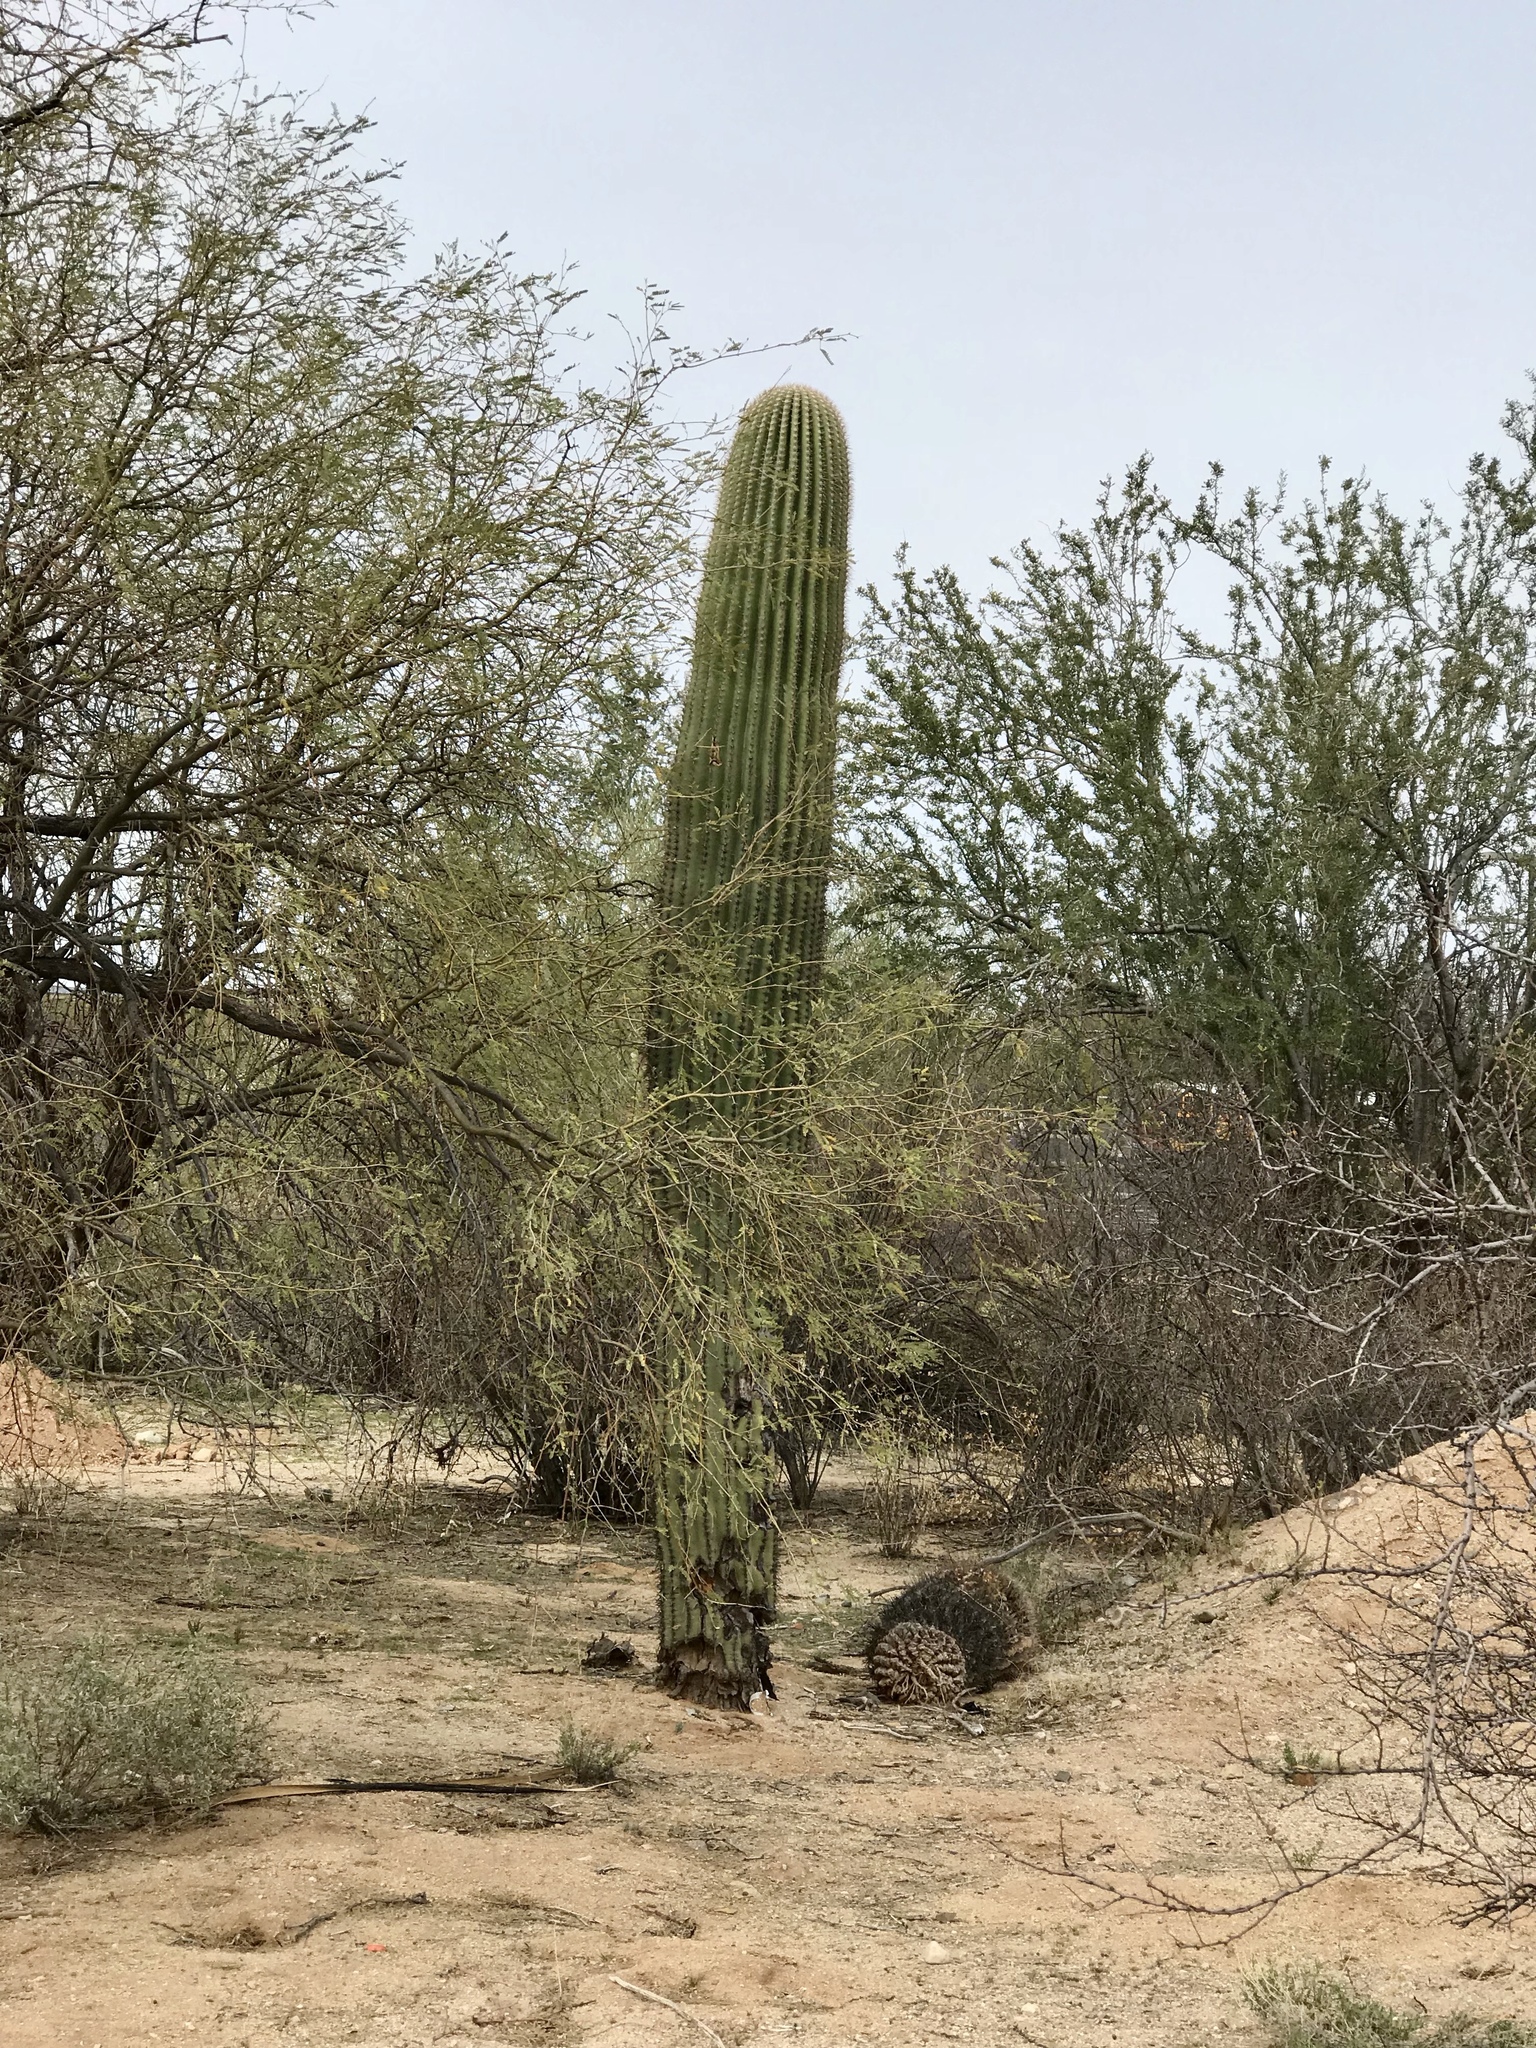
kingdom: Plantae
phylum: Tracheophyta
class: Magnoliopsida
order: Caryophyllales
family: Cactaceae
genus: Carnegiea
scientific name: Carnegiea gigantea
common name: Saguaro
